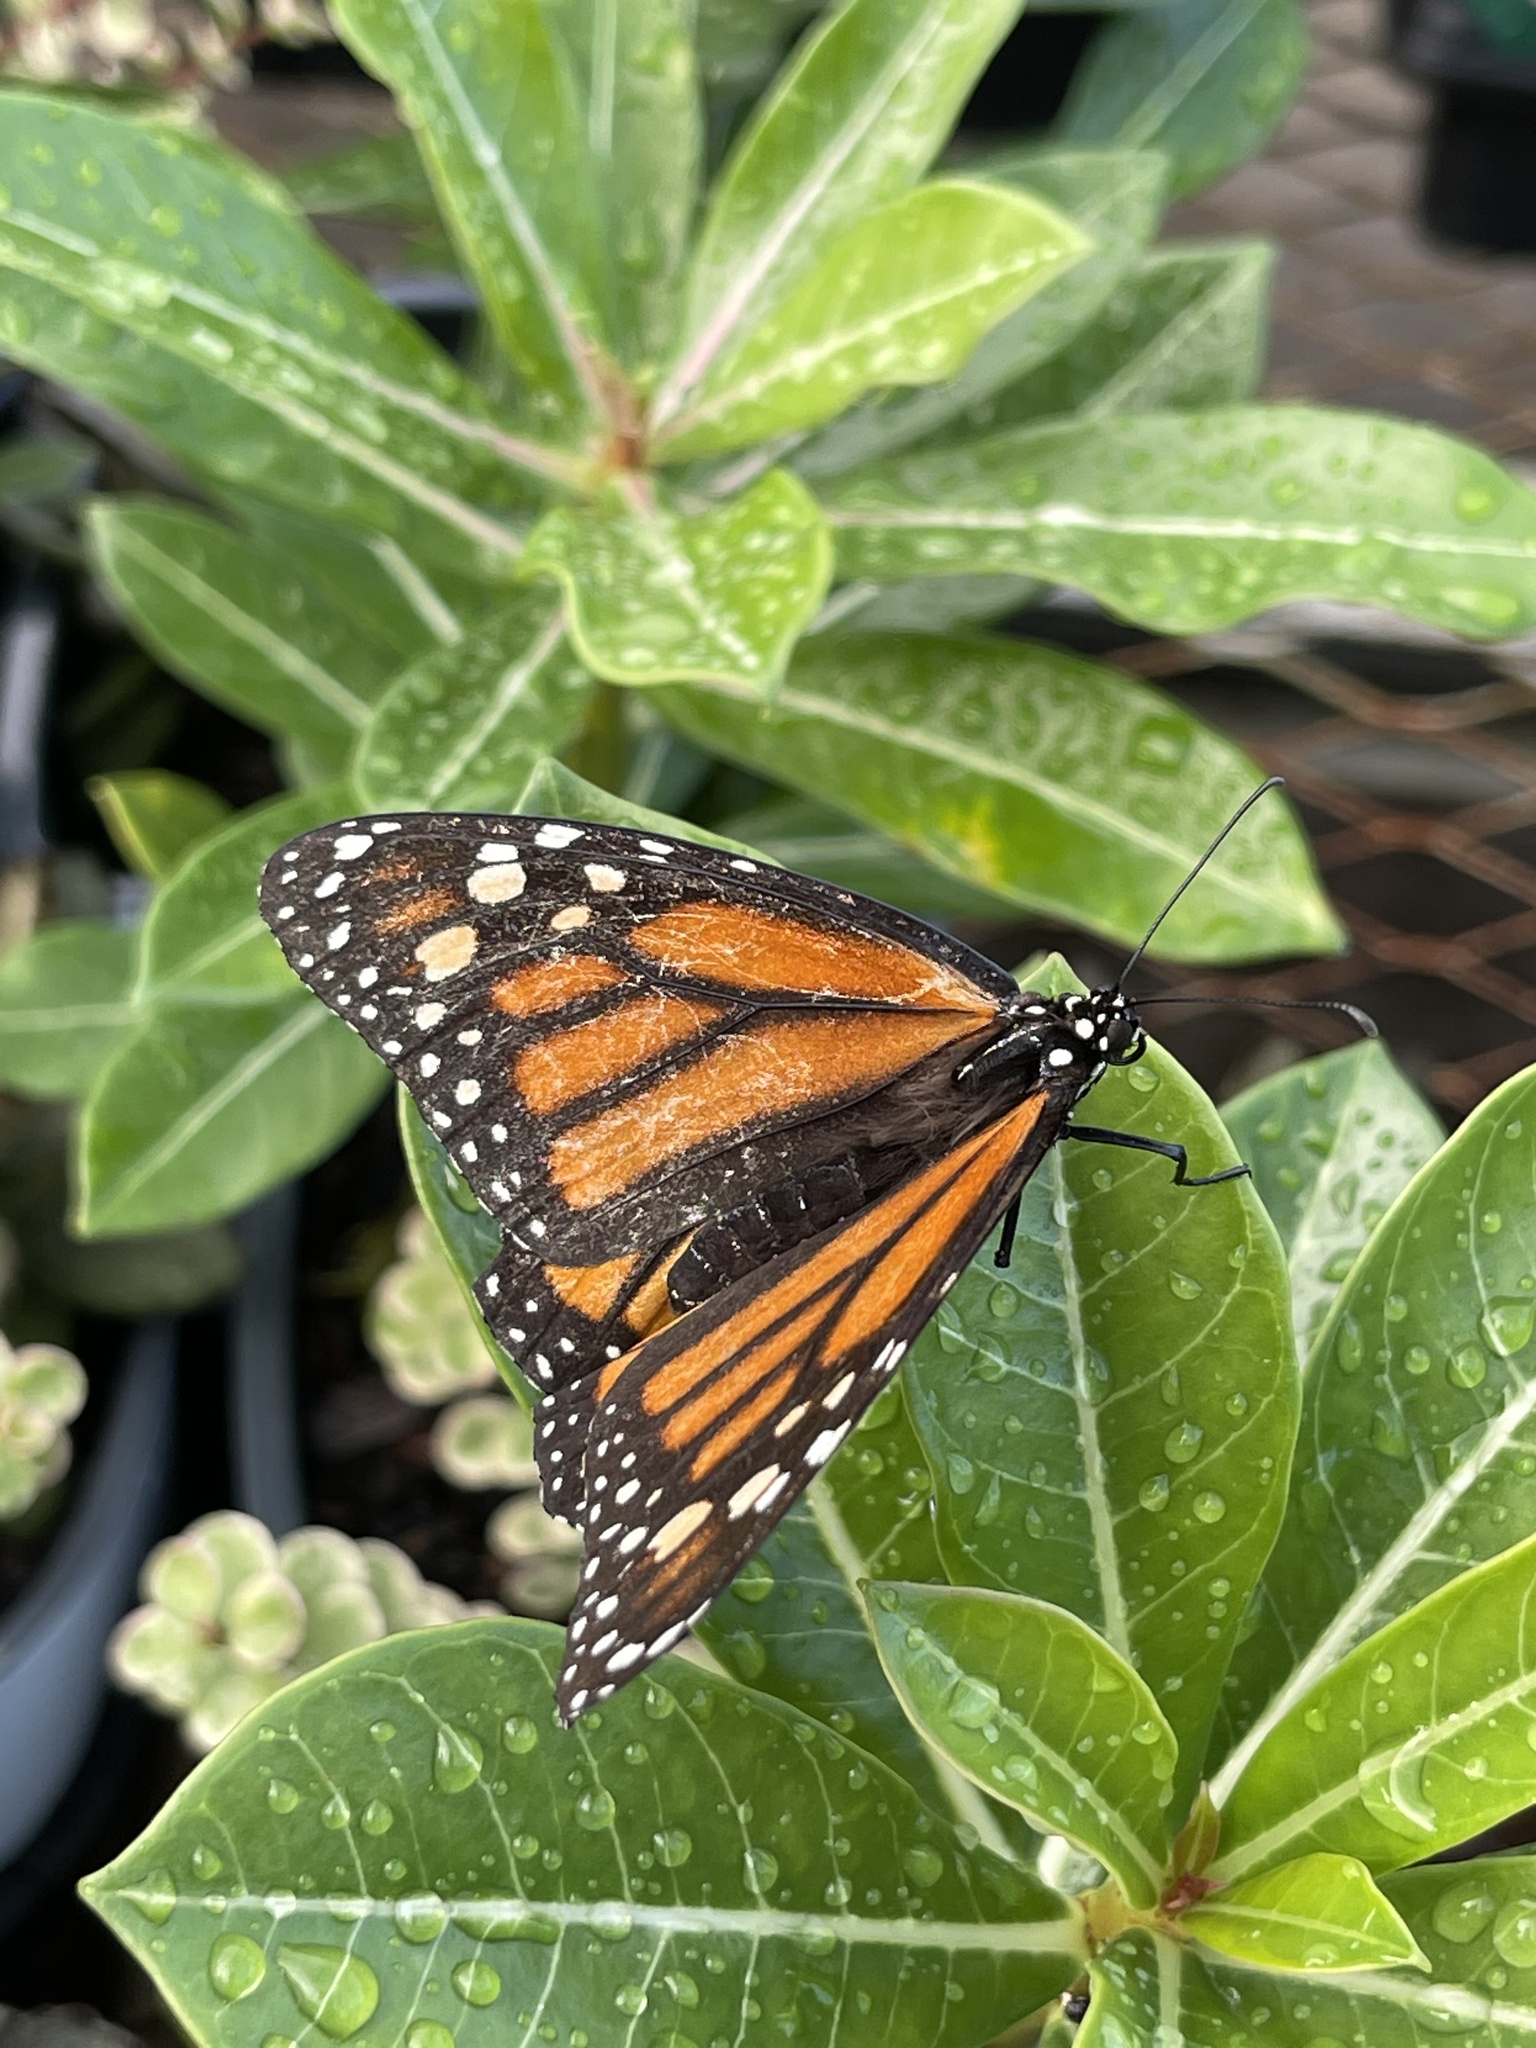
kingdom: Animalia
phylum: Arthropoda
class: Insecta
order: Lepidoptera
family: Nymphalidae
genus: Danaus
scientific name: Danaus plexippus
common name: Monarch
